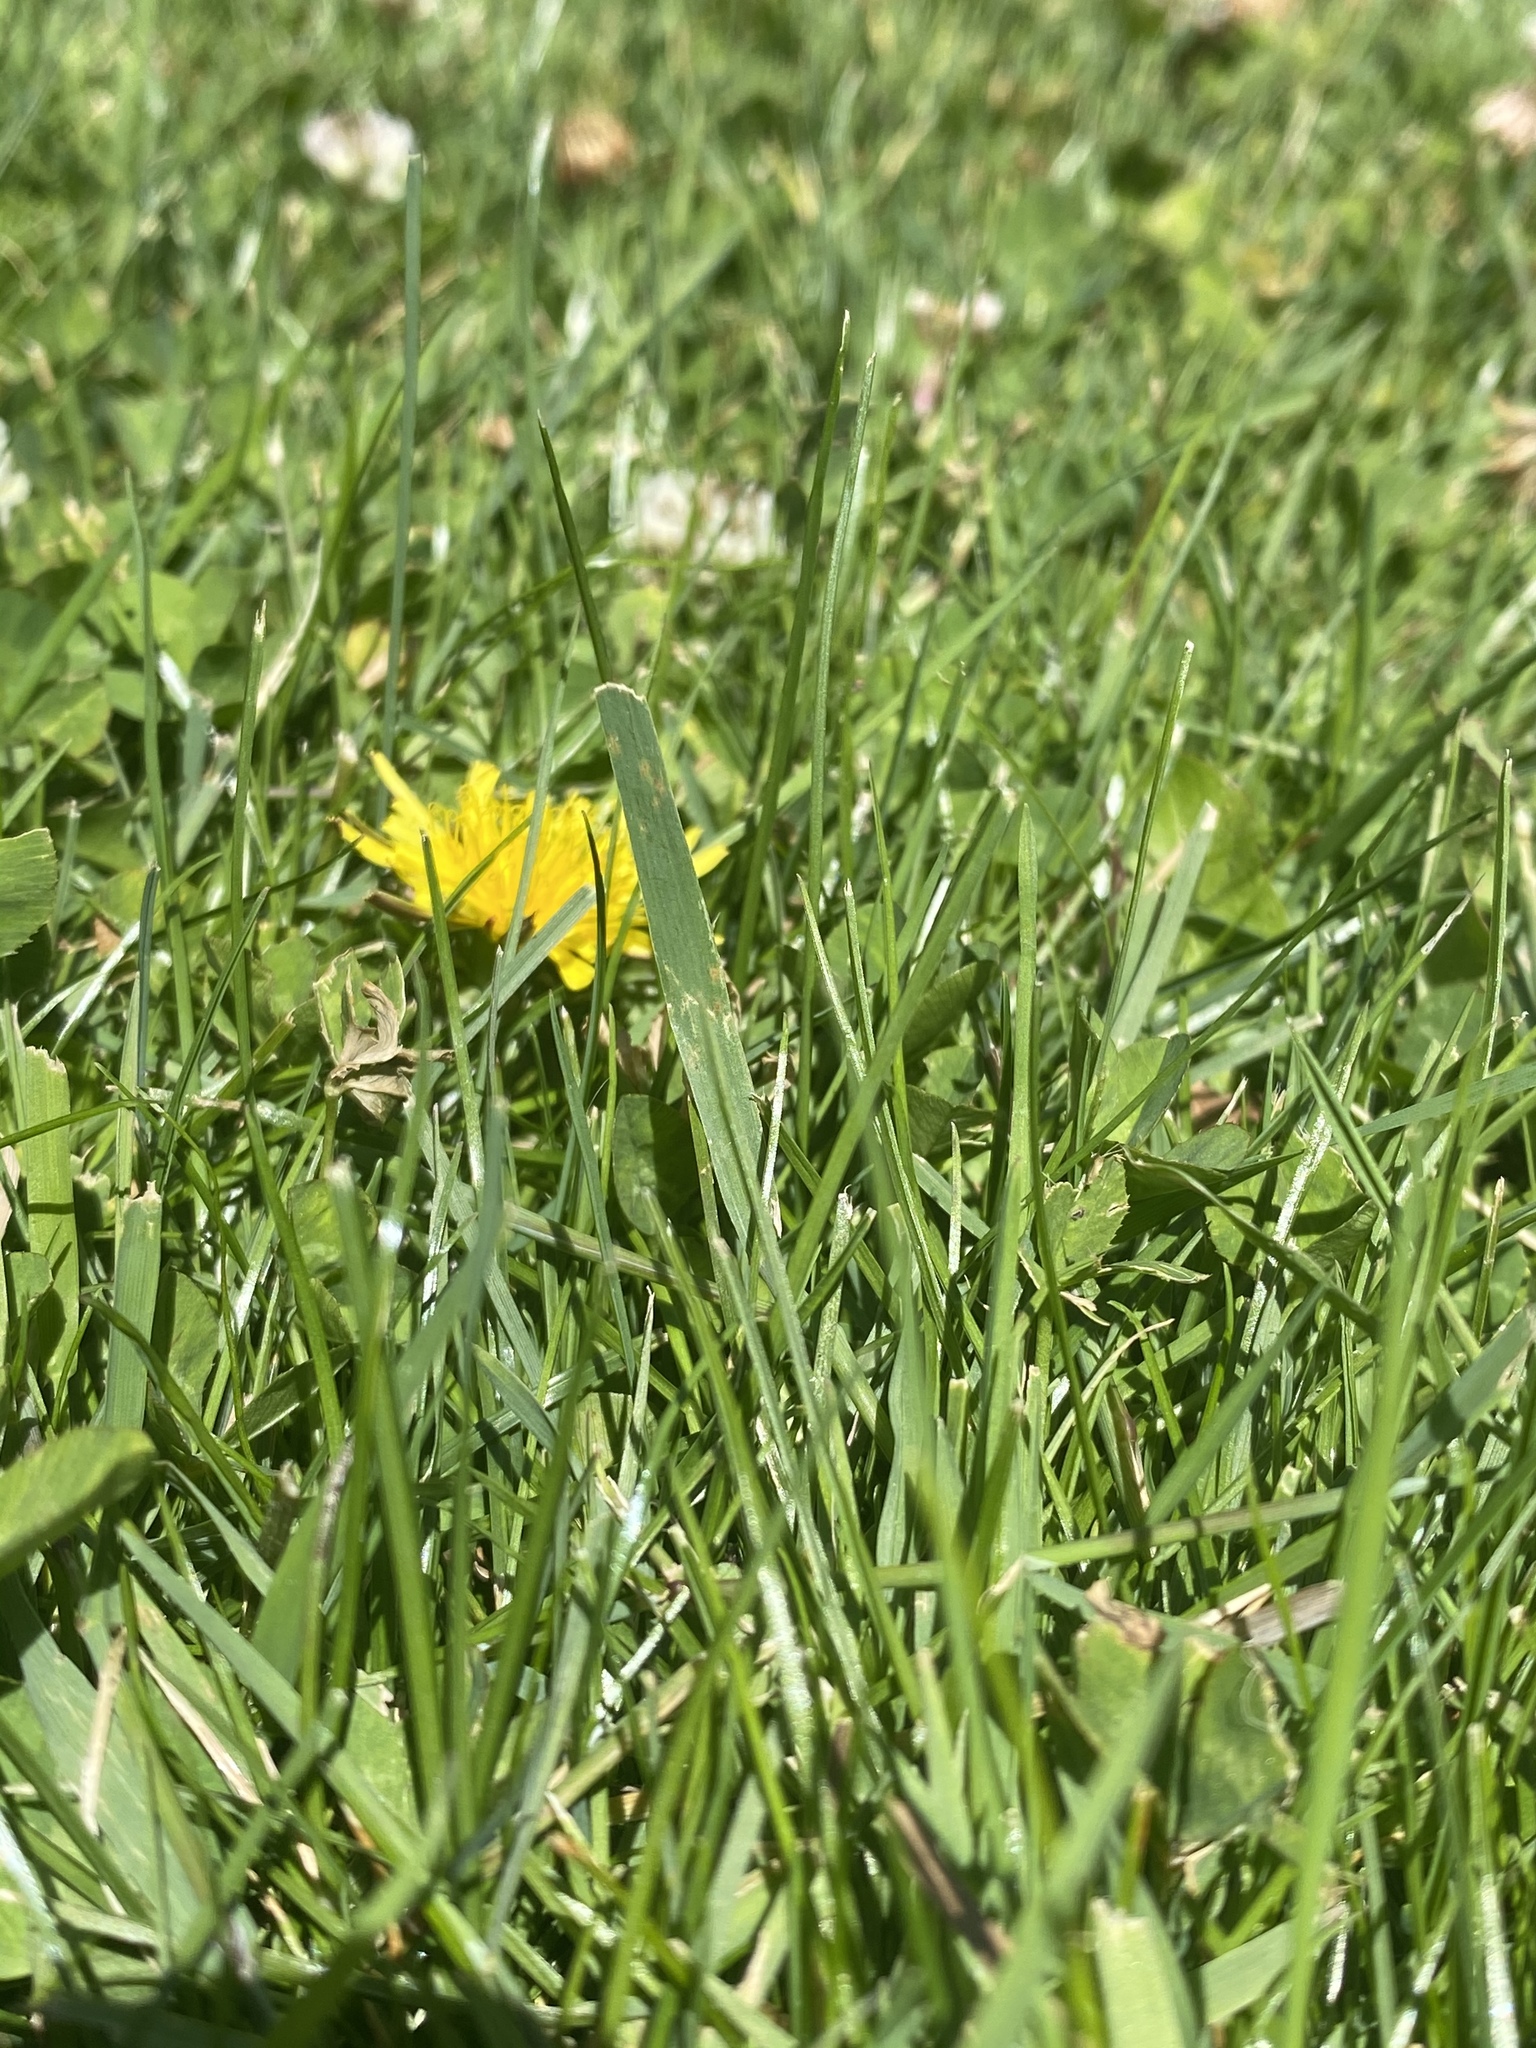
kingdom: Plantae
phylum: Tracheophyta
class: Magnoliopsida
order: Asterales
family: Asteraceae
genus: Taraxacum
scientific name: Taraxacum officinale
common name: Common dandelion
